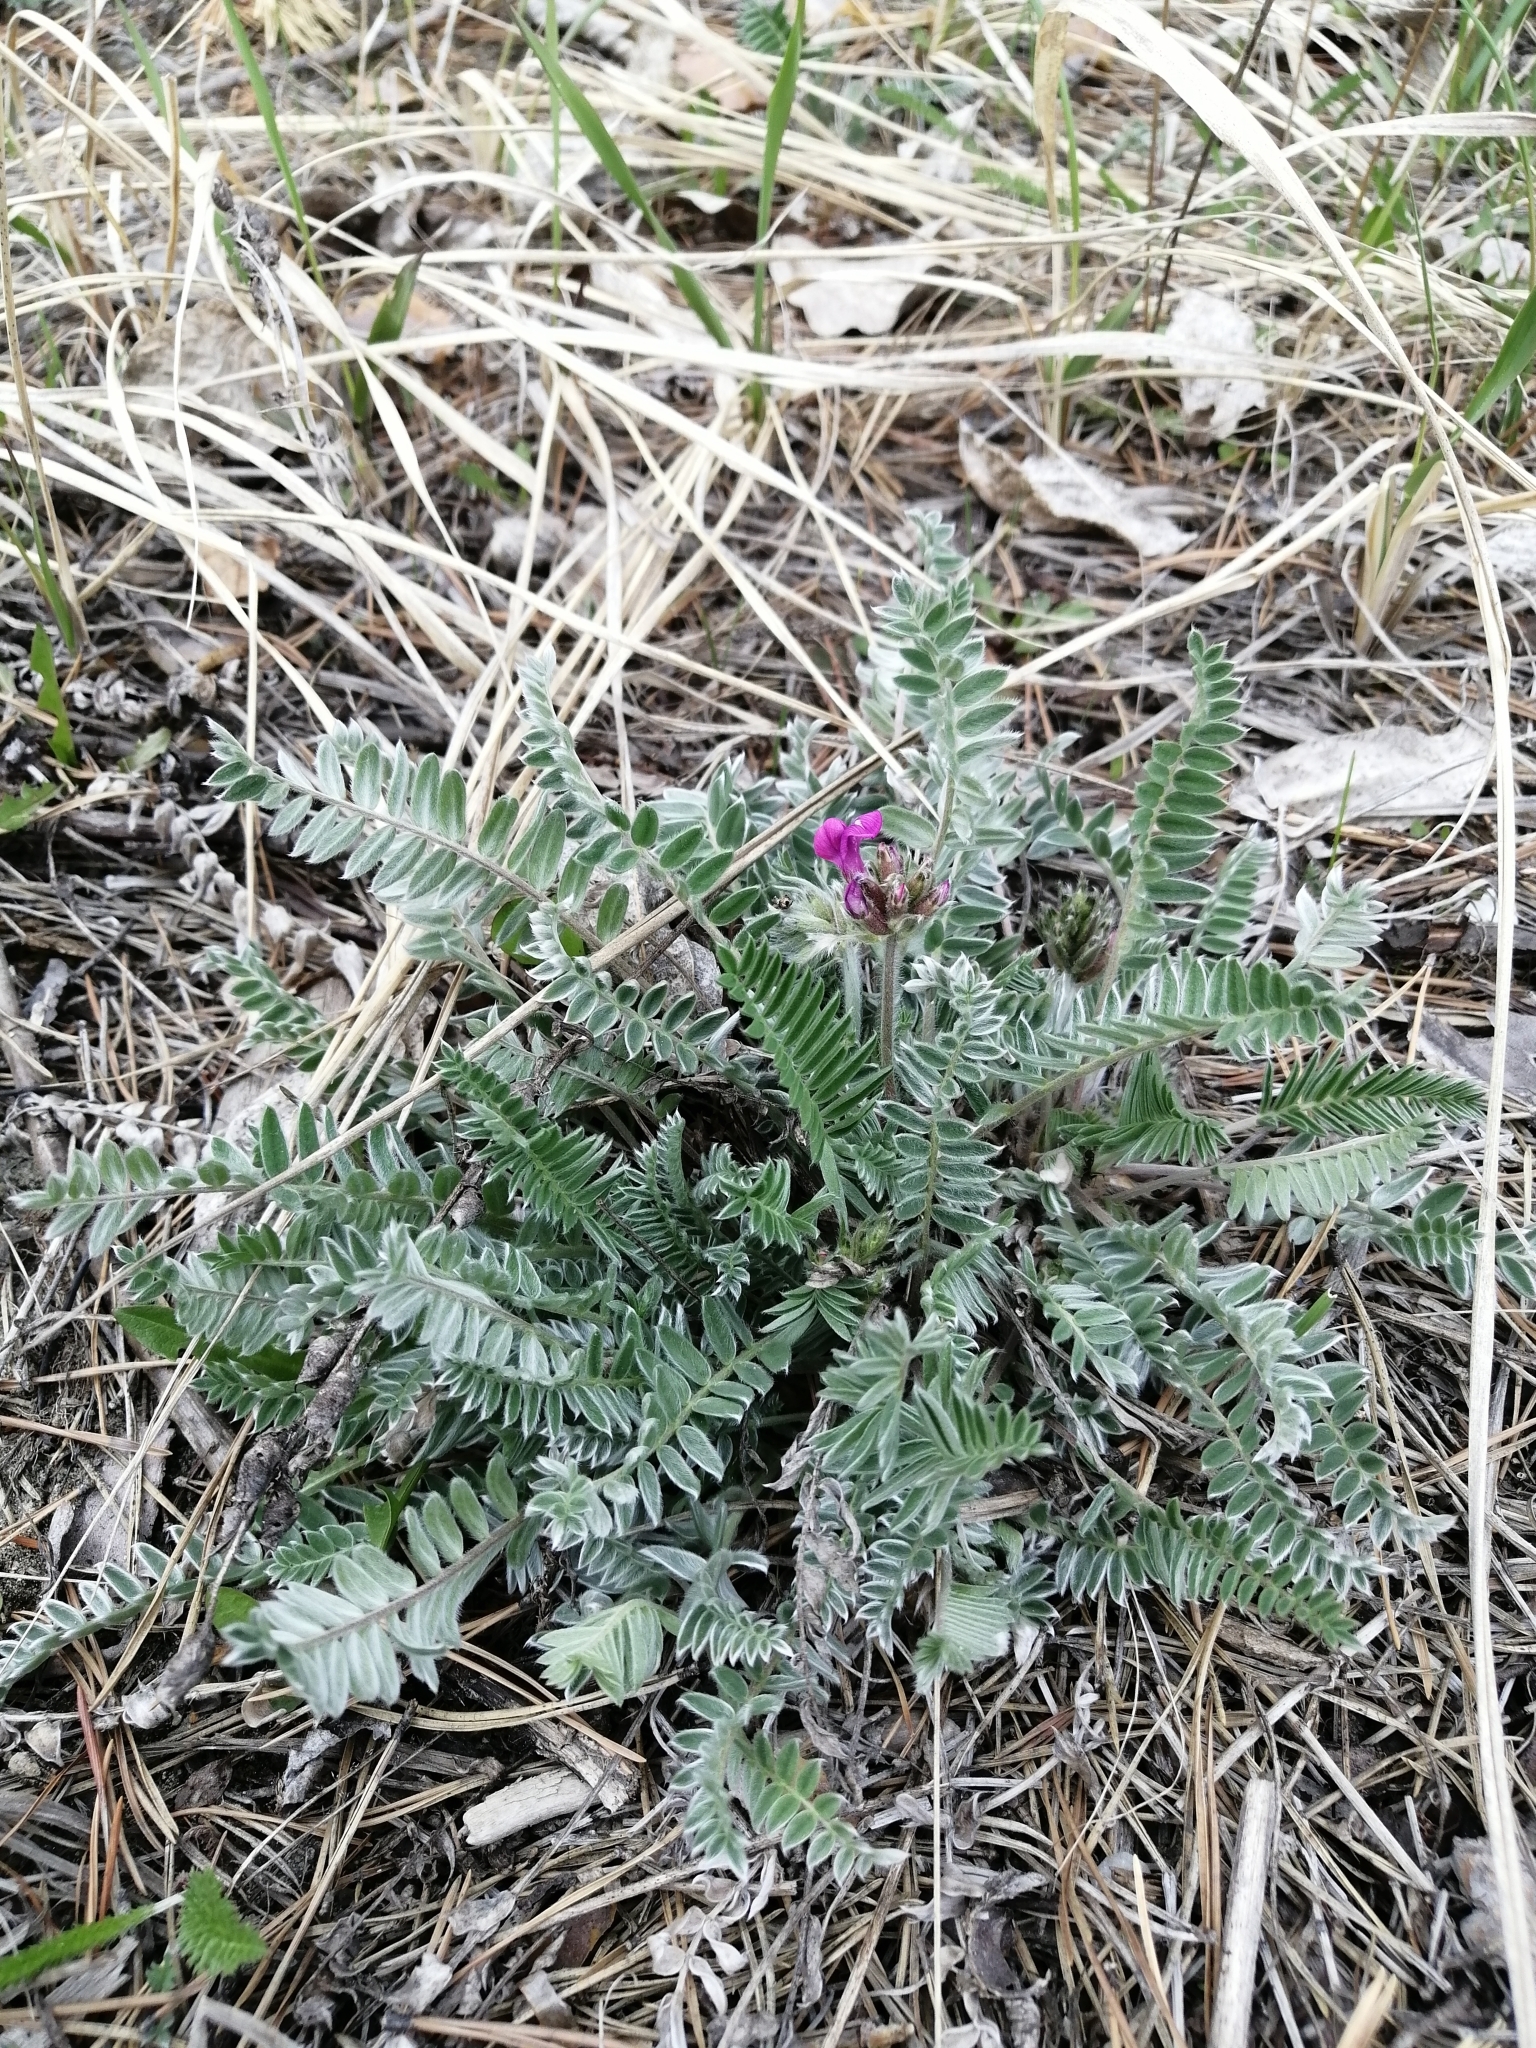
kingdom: Plantae
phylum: Tracheophyta
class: Magnoliopsida
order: Fabales
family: Fabaceae
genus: Oxytropis
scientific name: Oxytropis strobilacea
